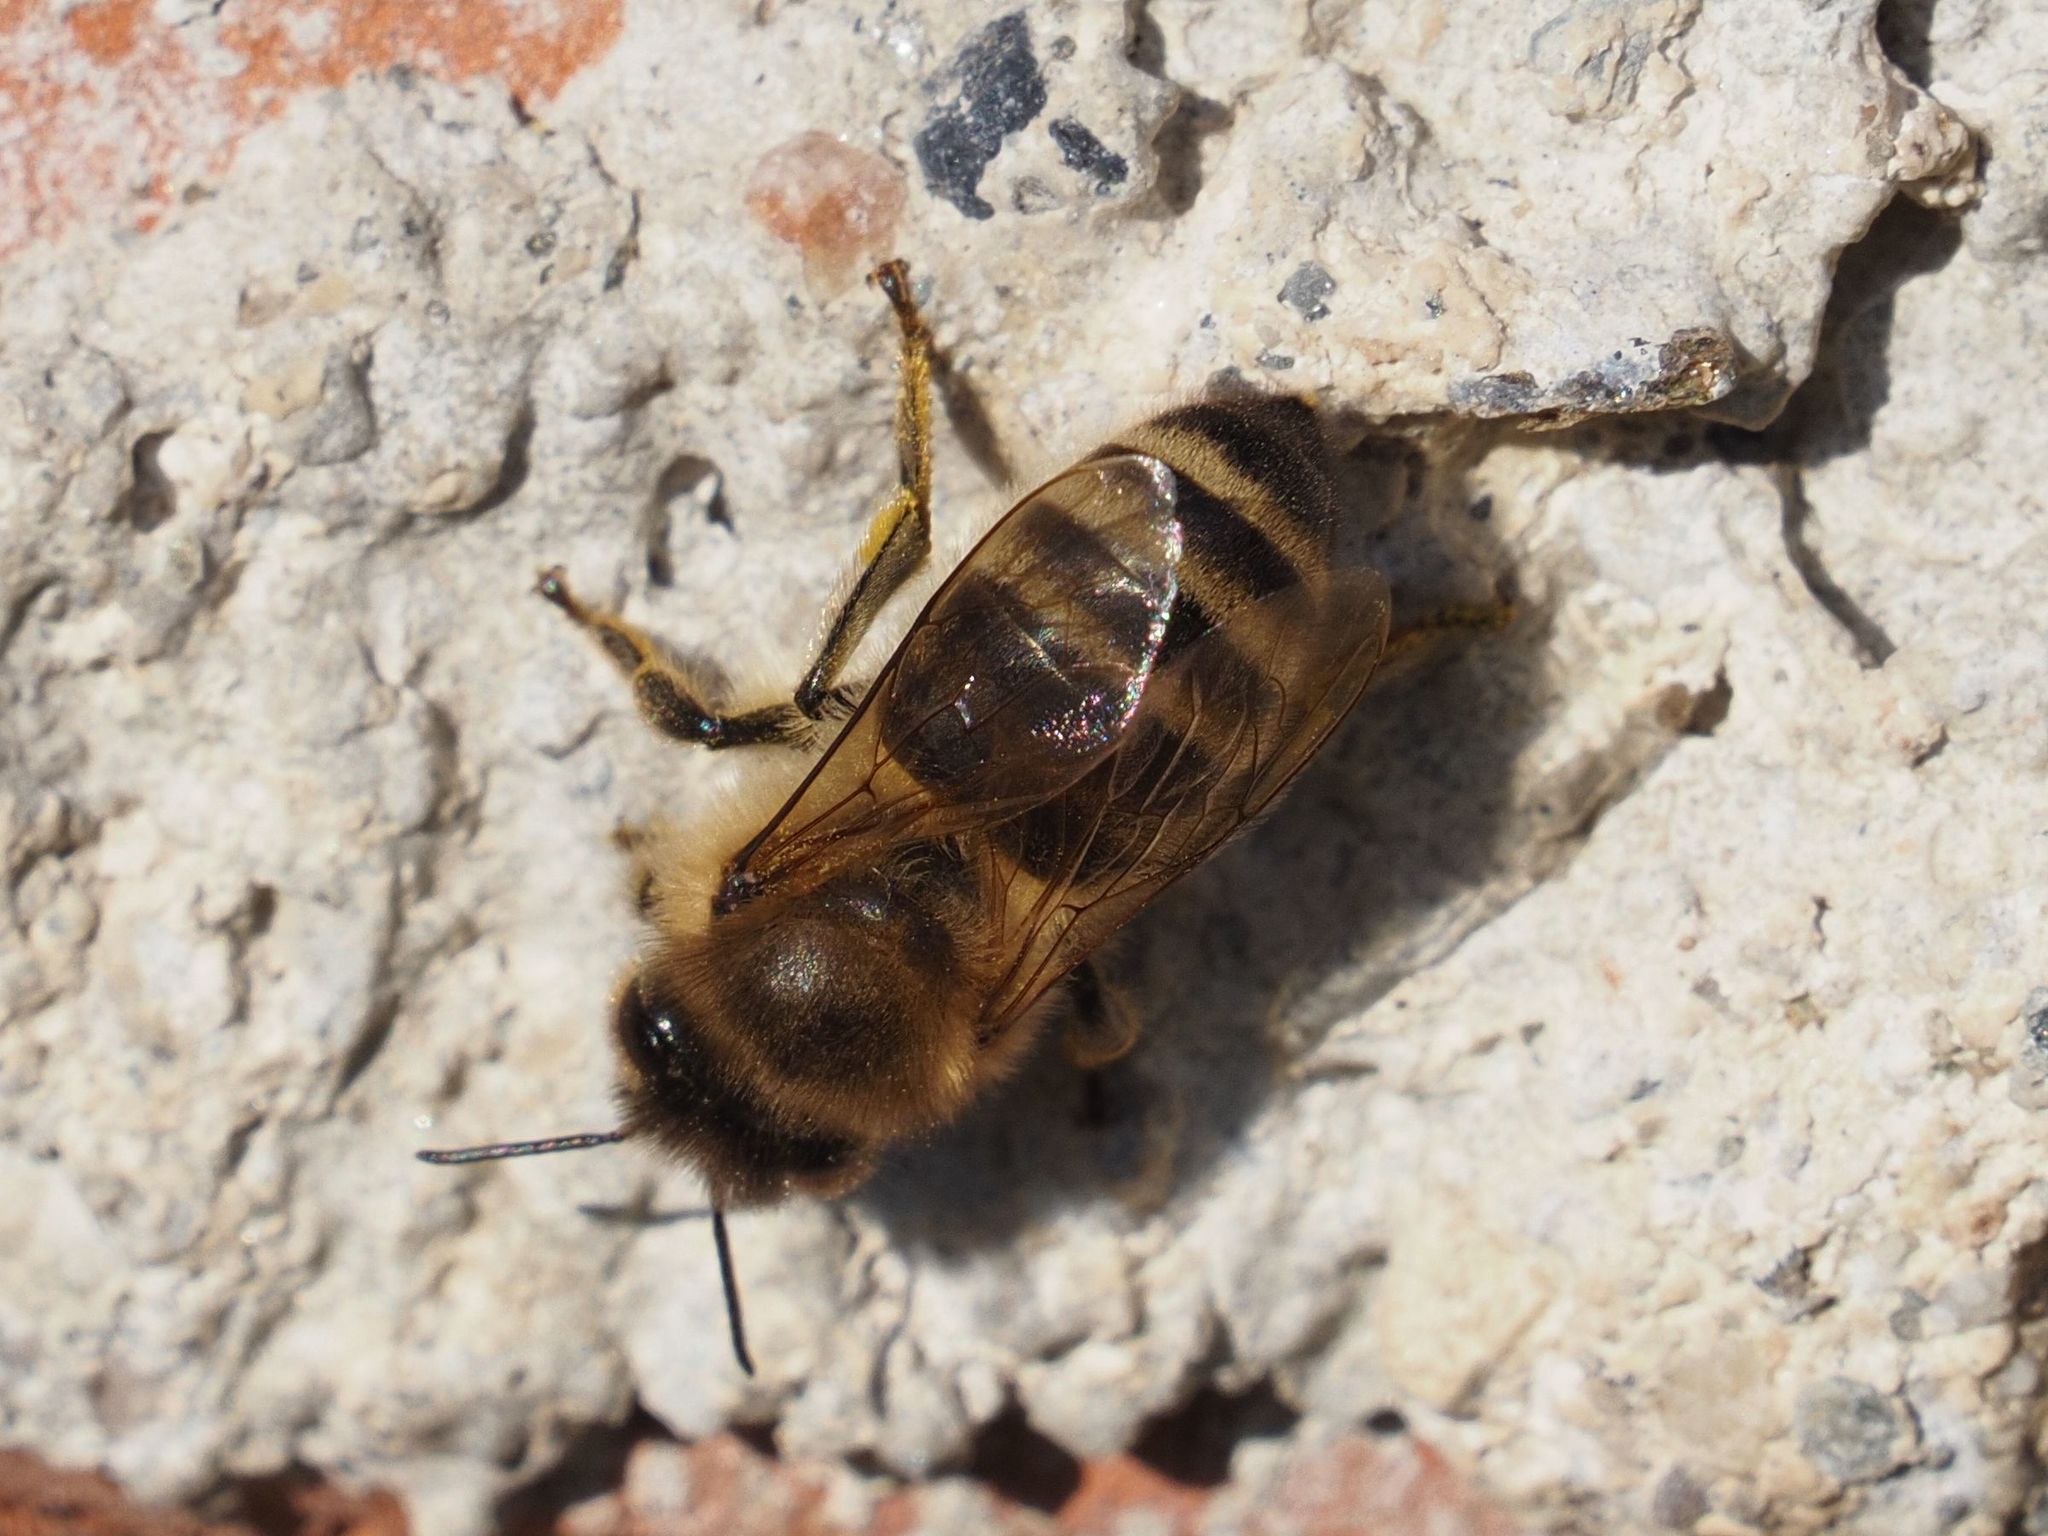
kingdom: Animalia
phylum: Arthropoda
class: Insecta
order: Hymenoptera
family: Apidae
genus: Apis
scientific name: Apis mellifera
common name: Honey bee
